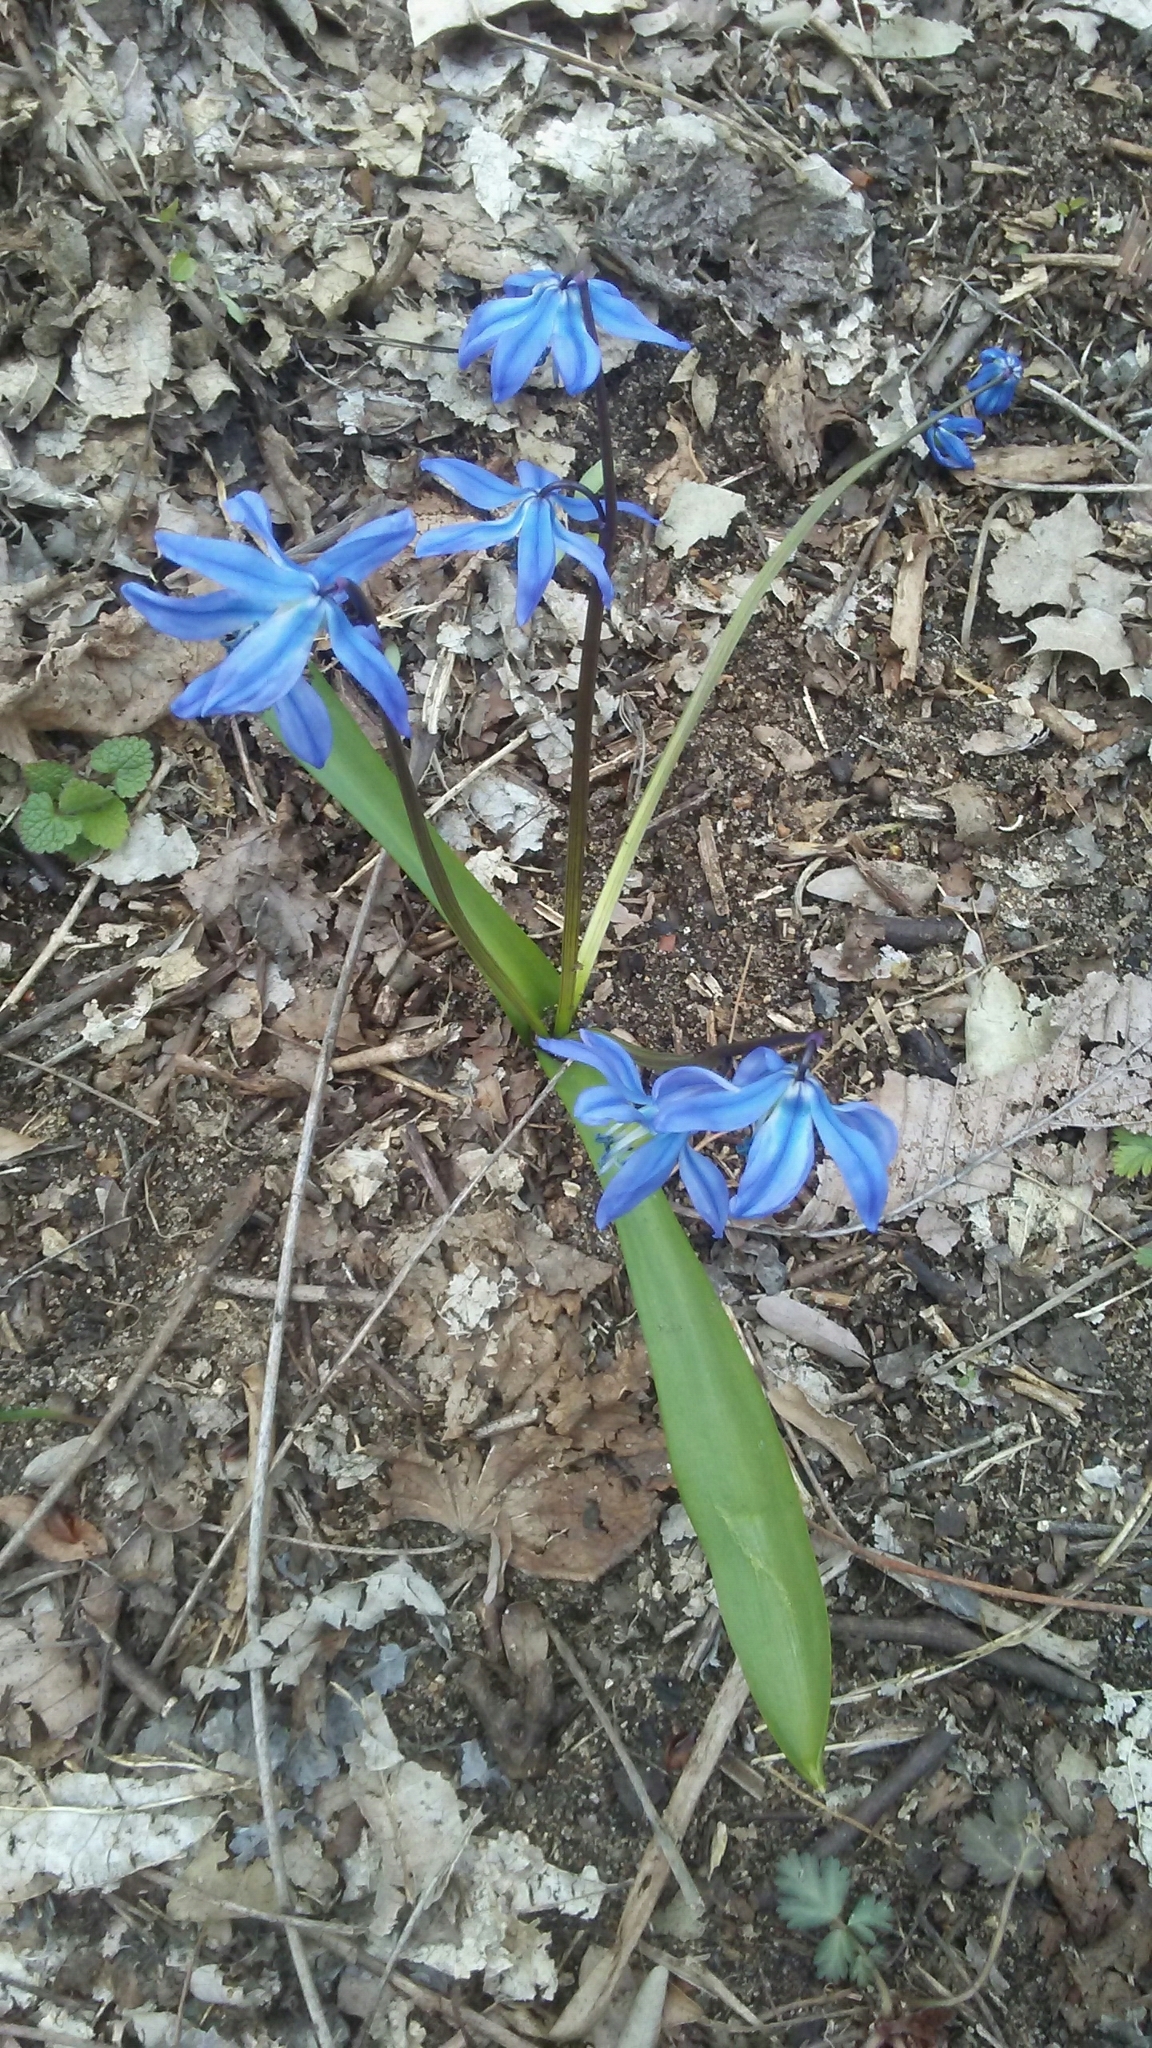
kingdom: Plantae
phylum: Tracheophyta
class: Liliopsida
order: Asparagales
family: Asparagaceae
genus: Scilla
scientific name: Scilla siberica
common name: Siberian squill
